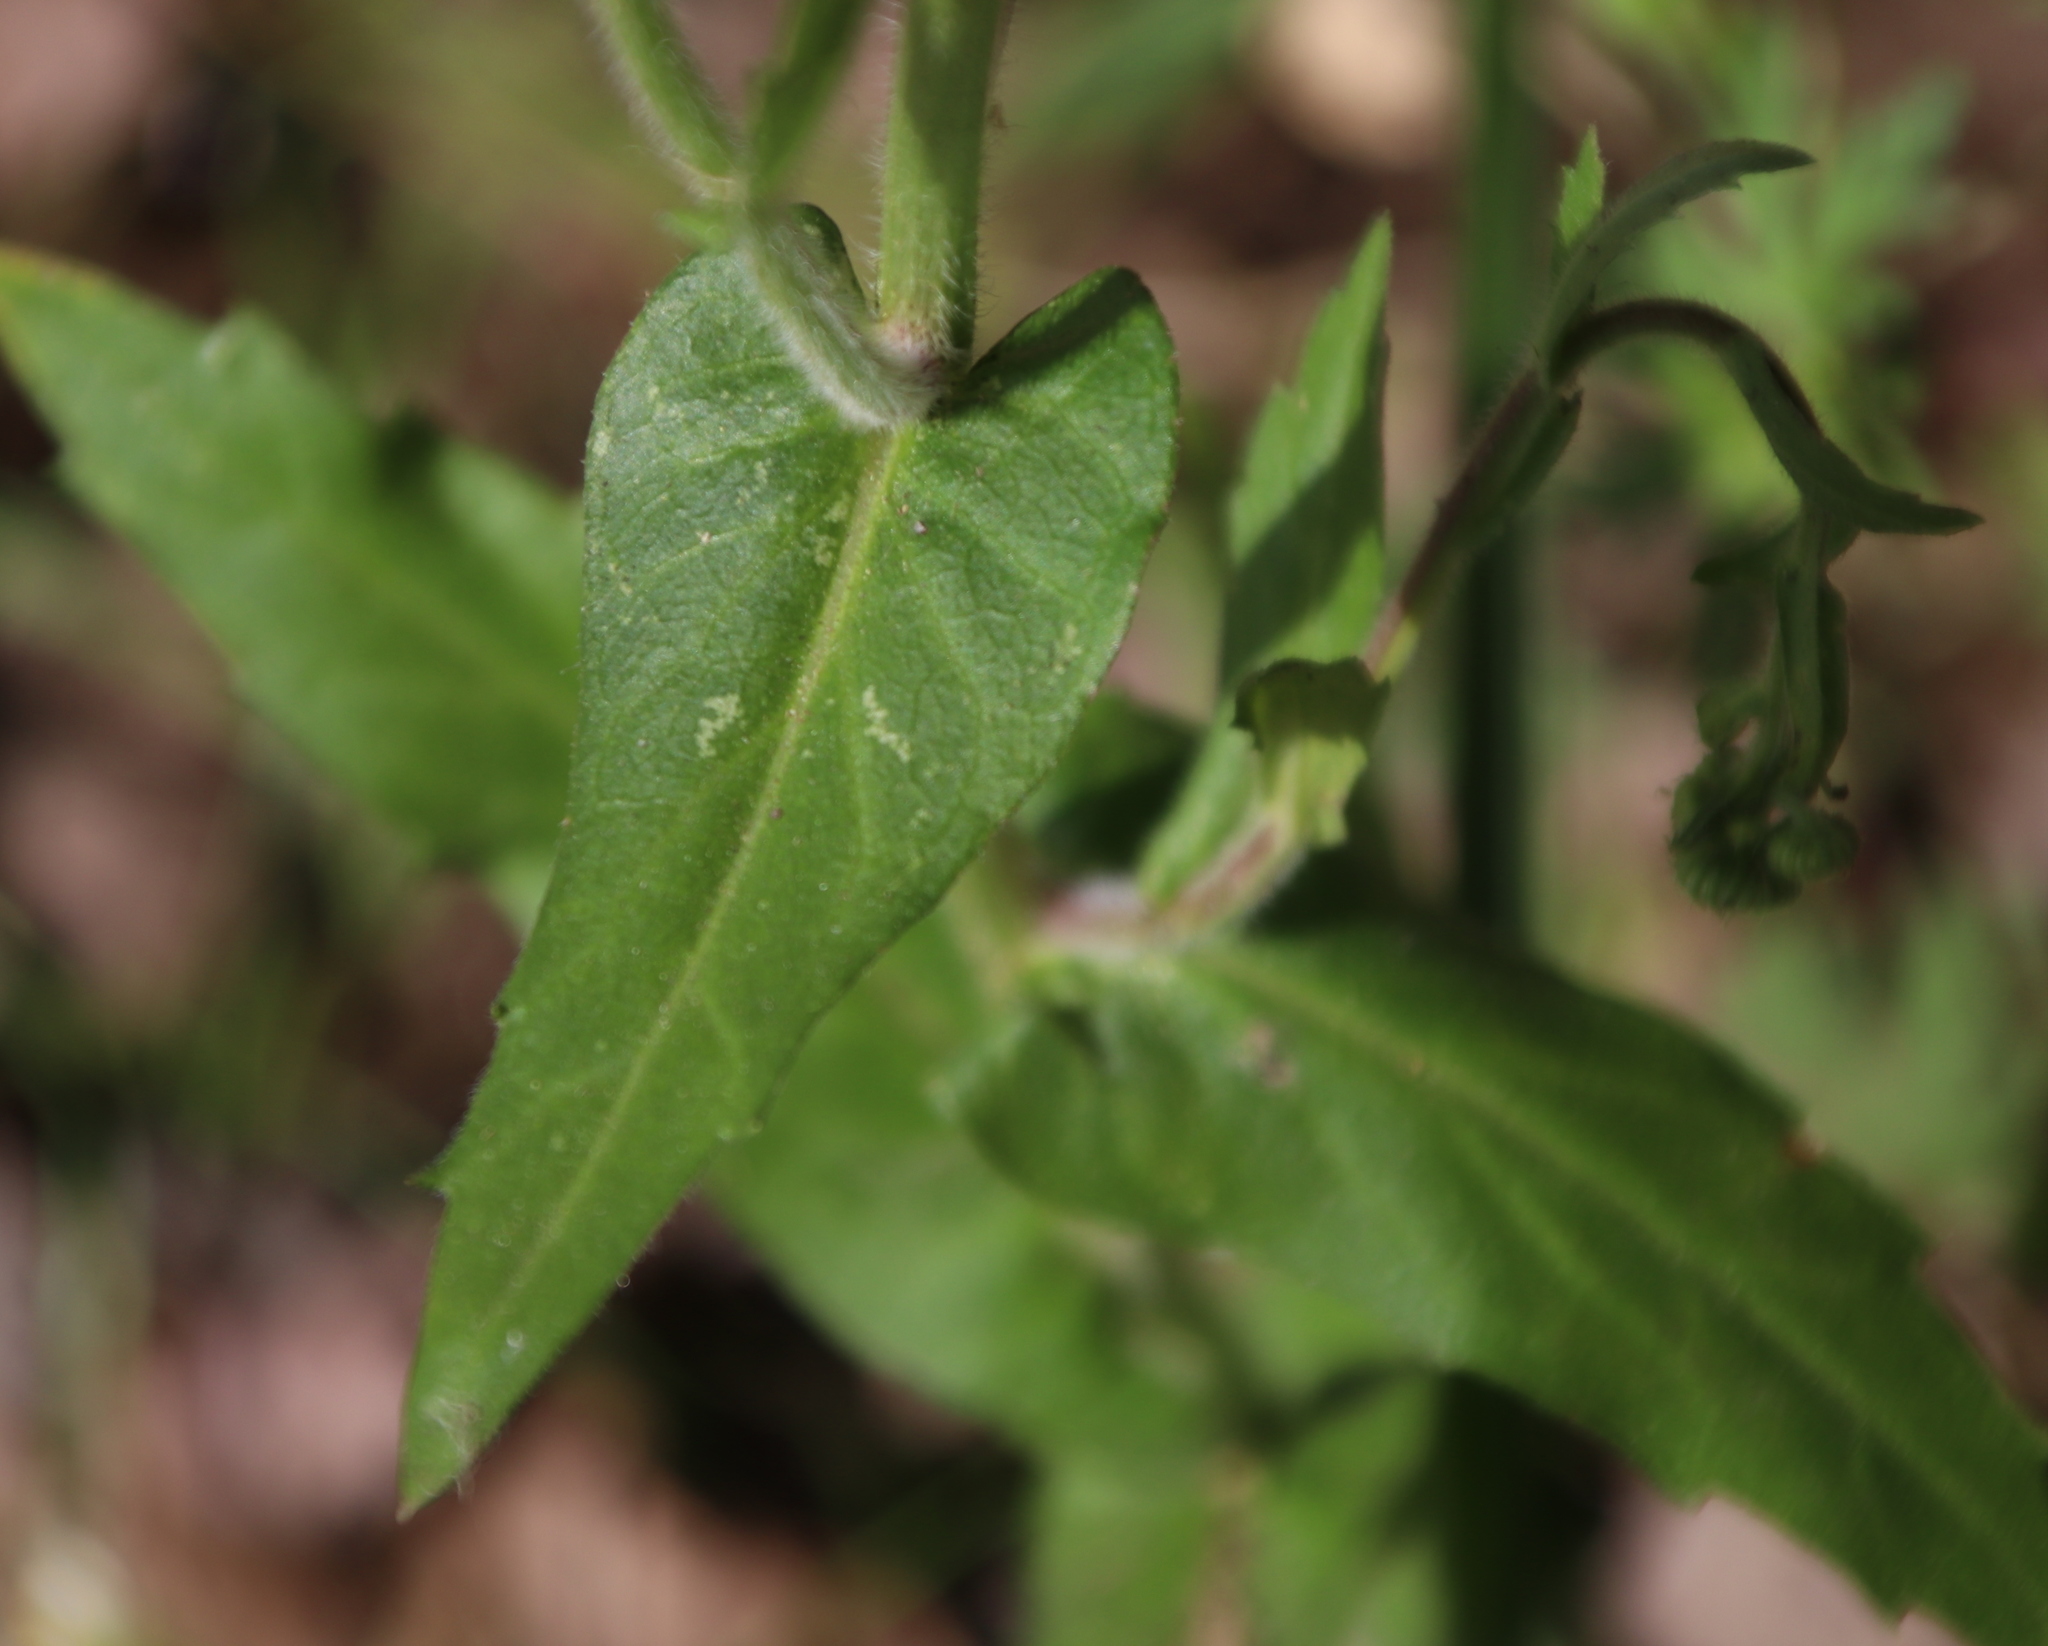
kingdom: Plantae
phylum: Tracheophyta
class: Magnoliopsida
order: Asterales
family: Asteraceae
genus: Erigeron
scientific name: Erigeron philadelphicus
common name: Robin's-plantain
